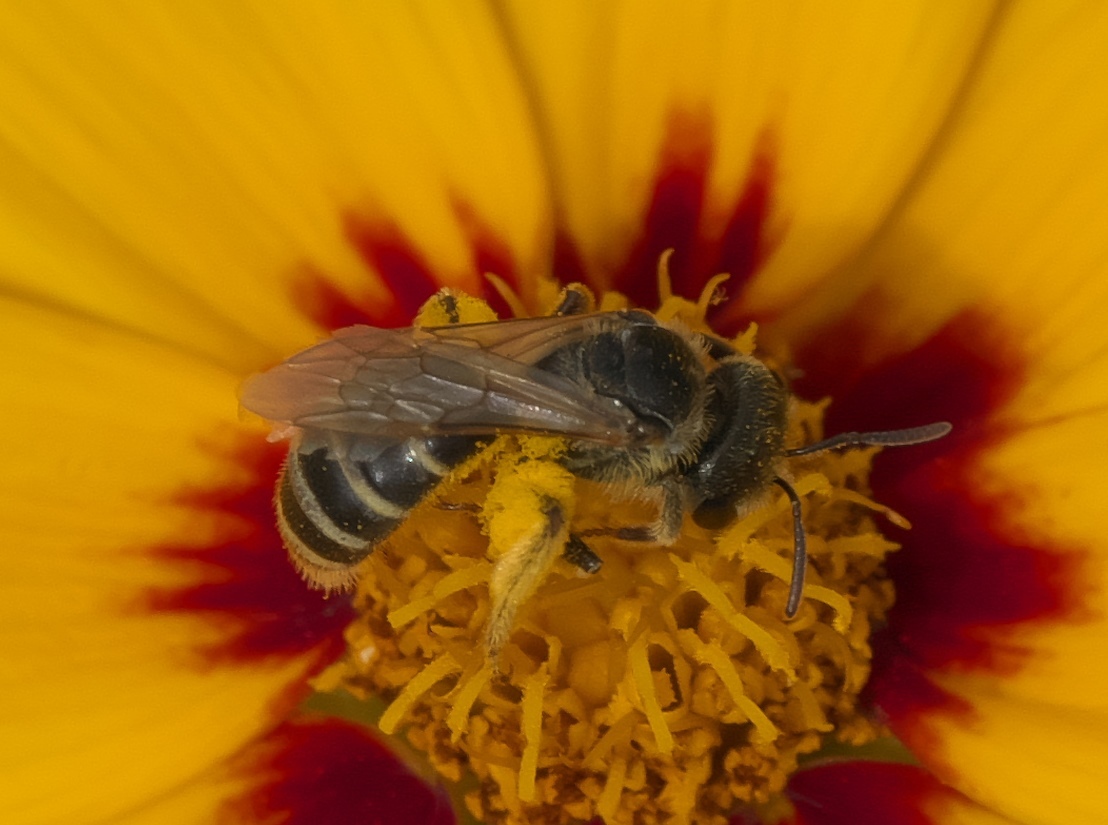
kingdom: Animalia
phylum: Arthropoda
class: Insecta
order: Hymenoptera
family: Halictidae
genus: Halictus
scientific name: Halictus ligatus
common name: Ligated furrow bee
